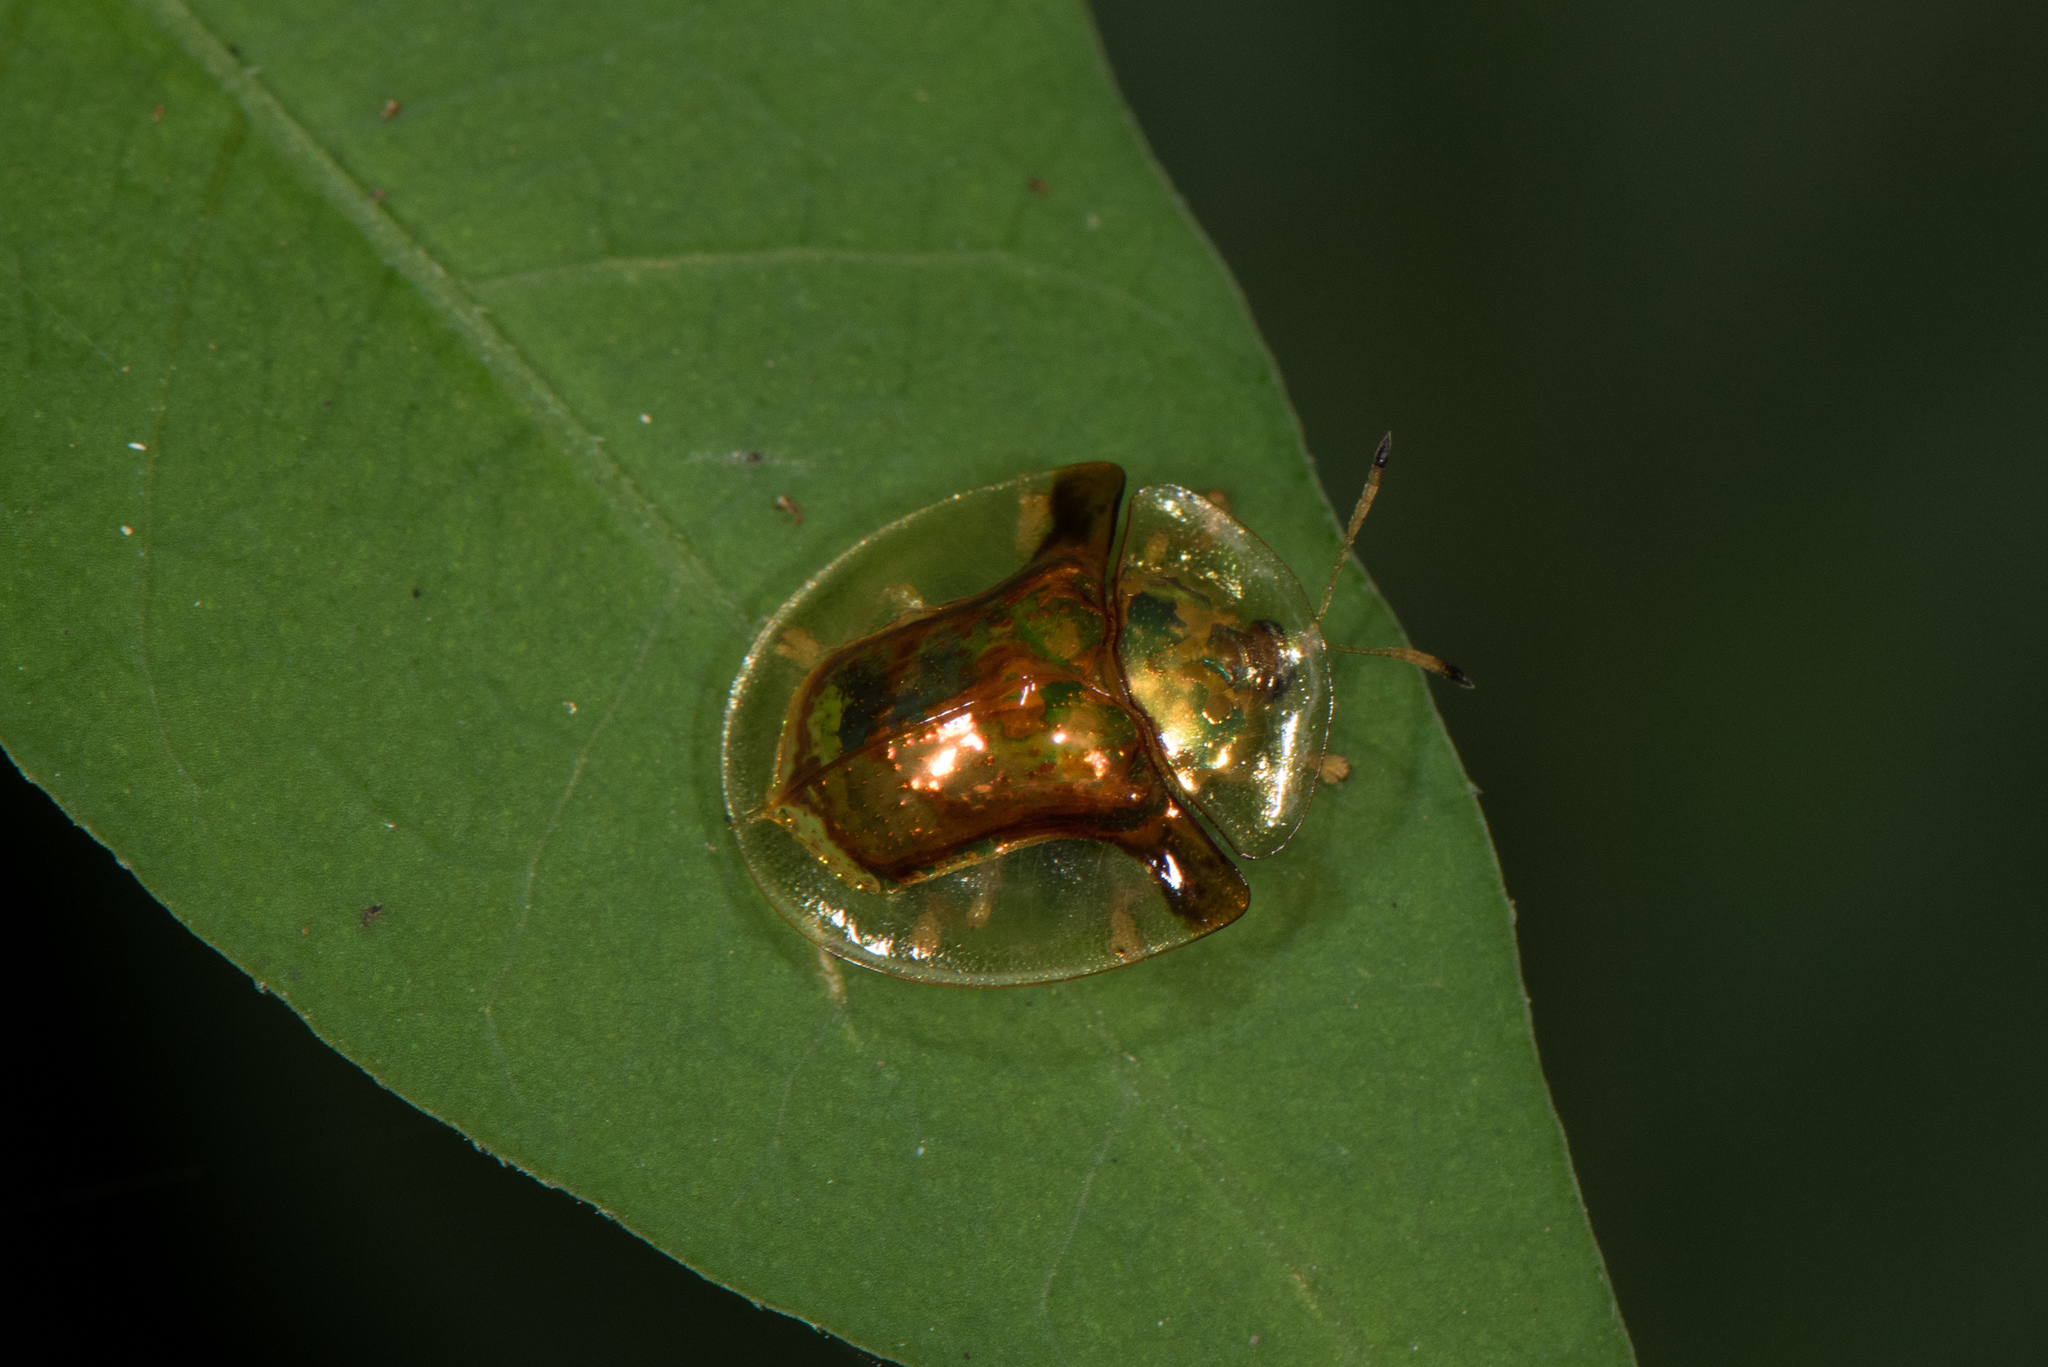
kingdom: Animalia
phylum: Arthropoda
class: Insecta
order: Coleoptera
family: Chrysomelidae
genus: Aspidimorpha
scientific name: Aspidimorpha furcata
